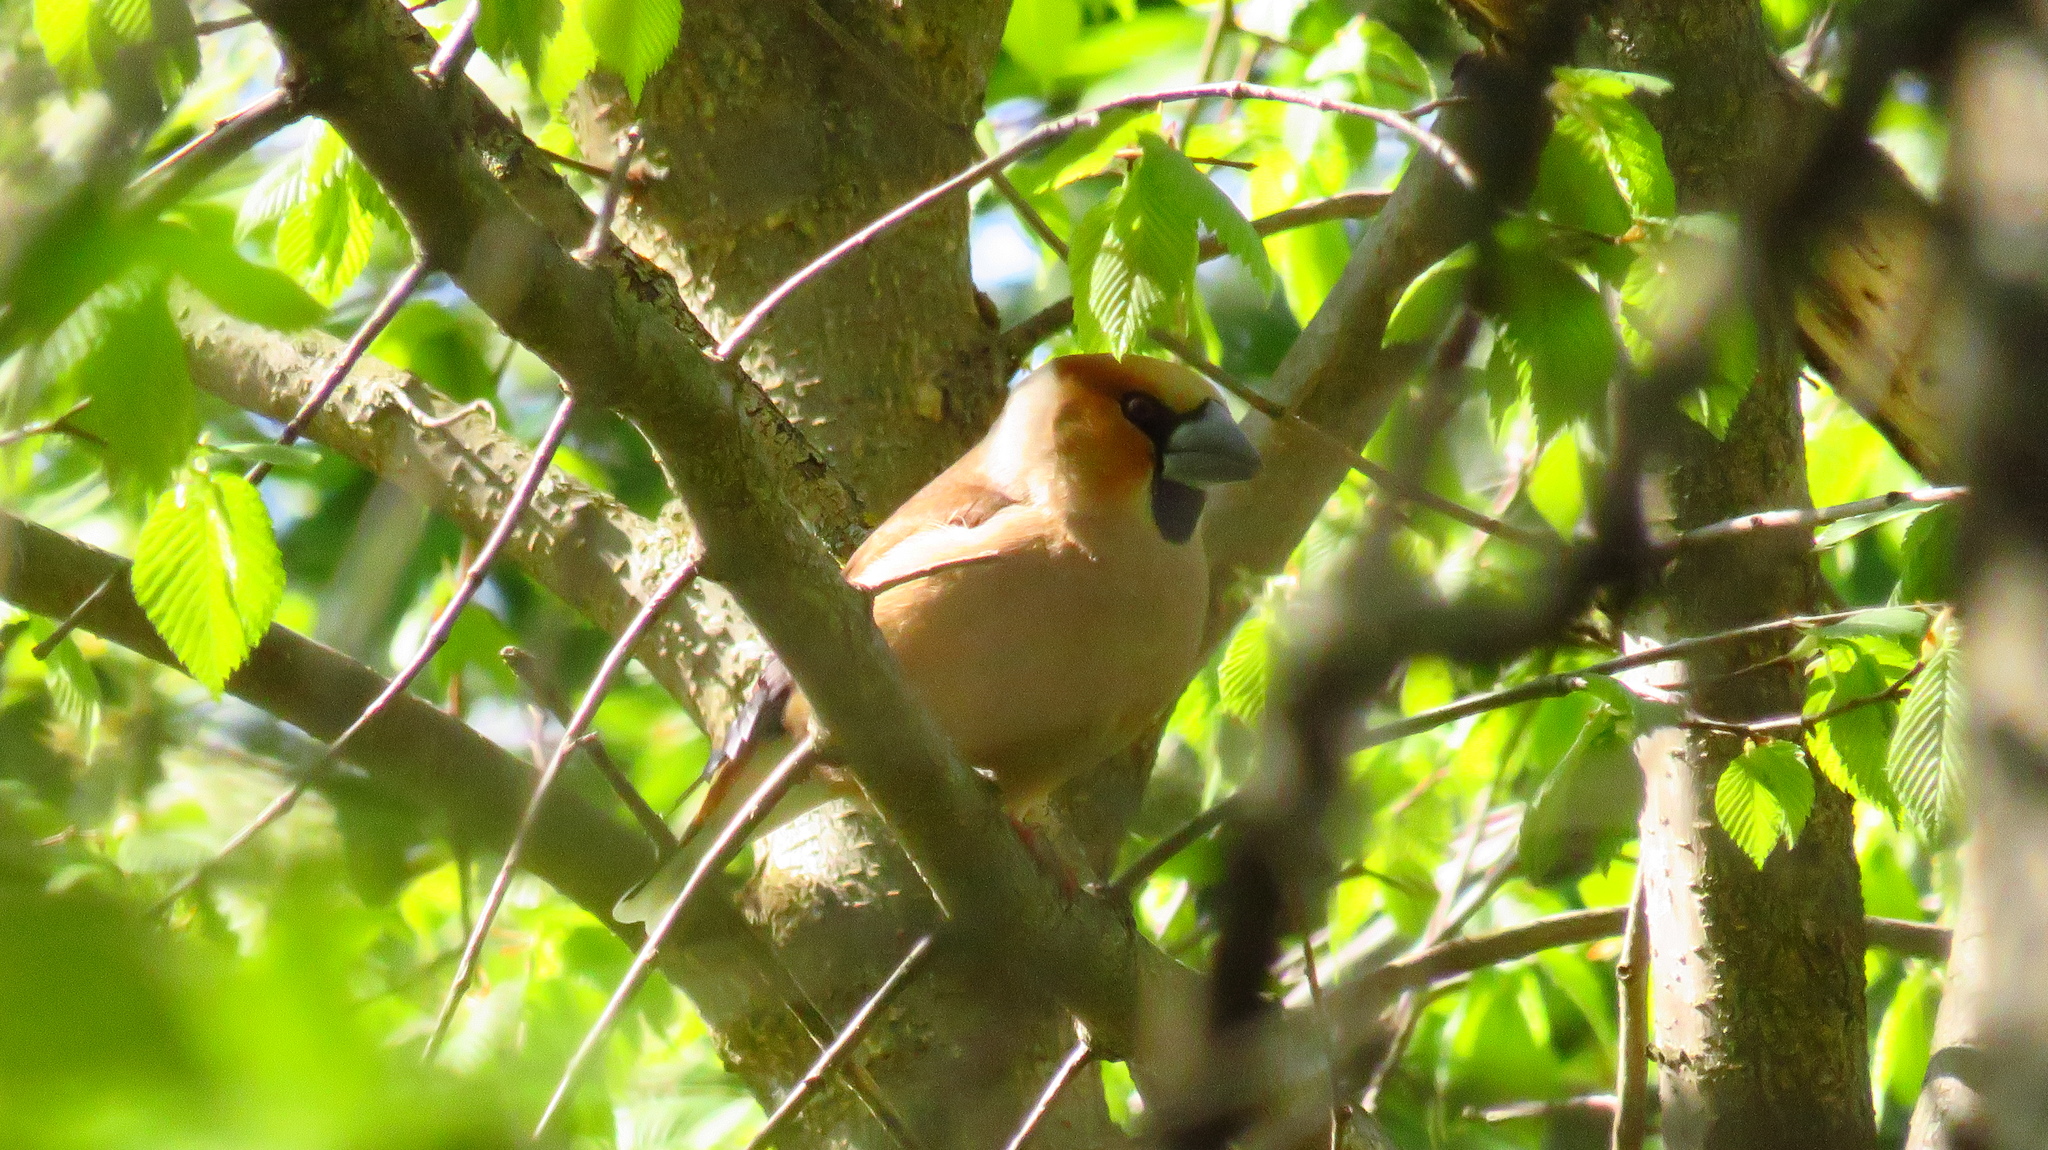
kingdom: Animalia
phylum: Chordata
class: Aves
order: Passeriformes
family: Fringillidae
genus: Coccothraustes
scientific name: Coccothraustes coccothraustes
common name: Hawfinch
